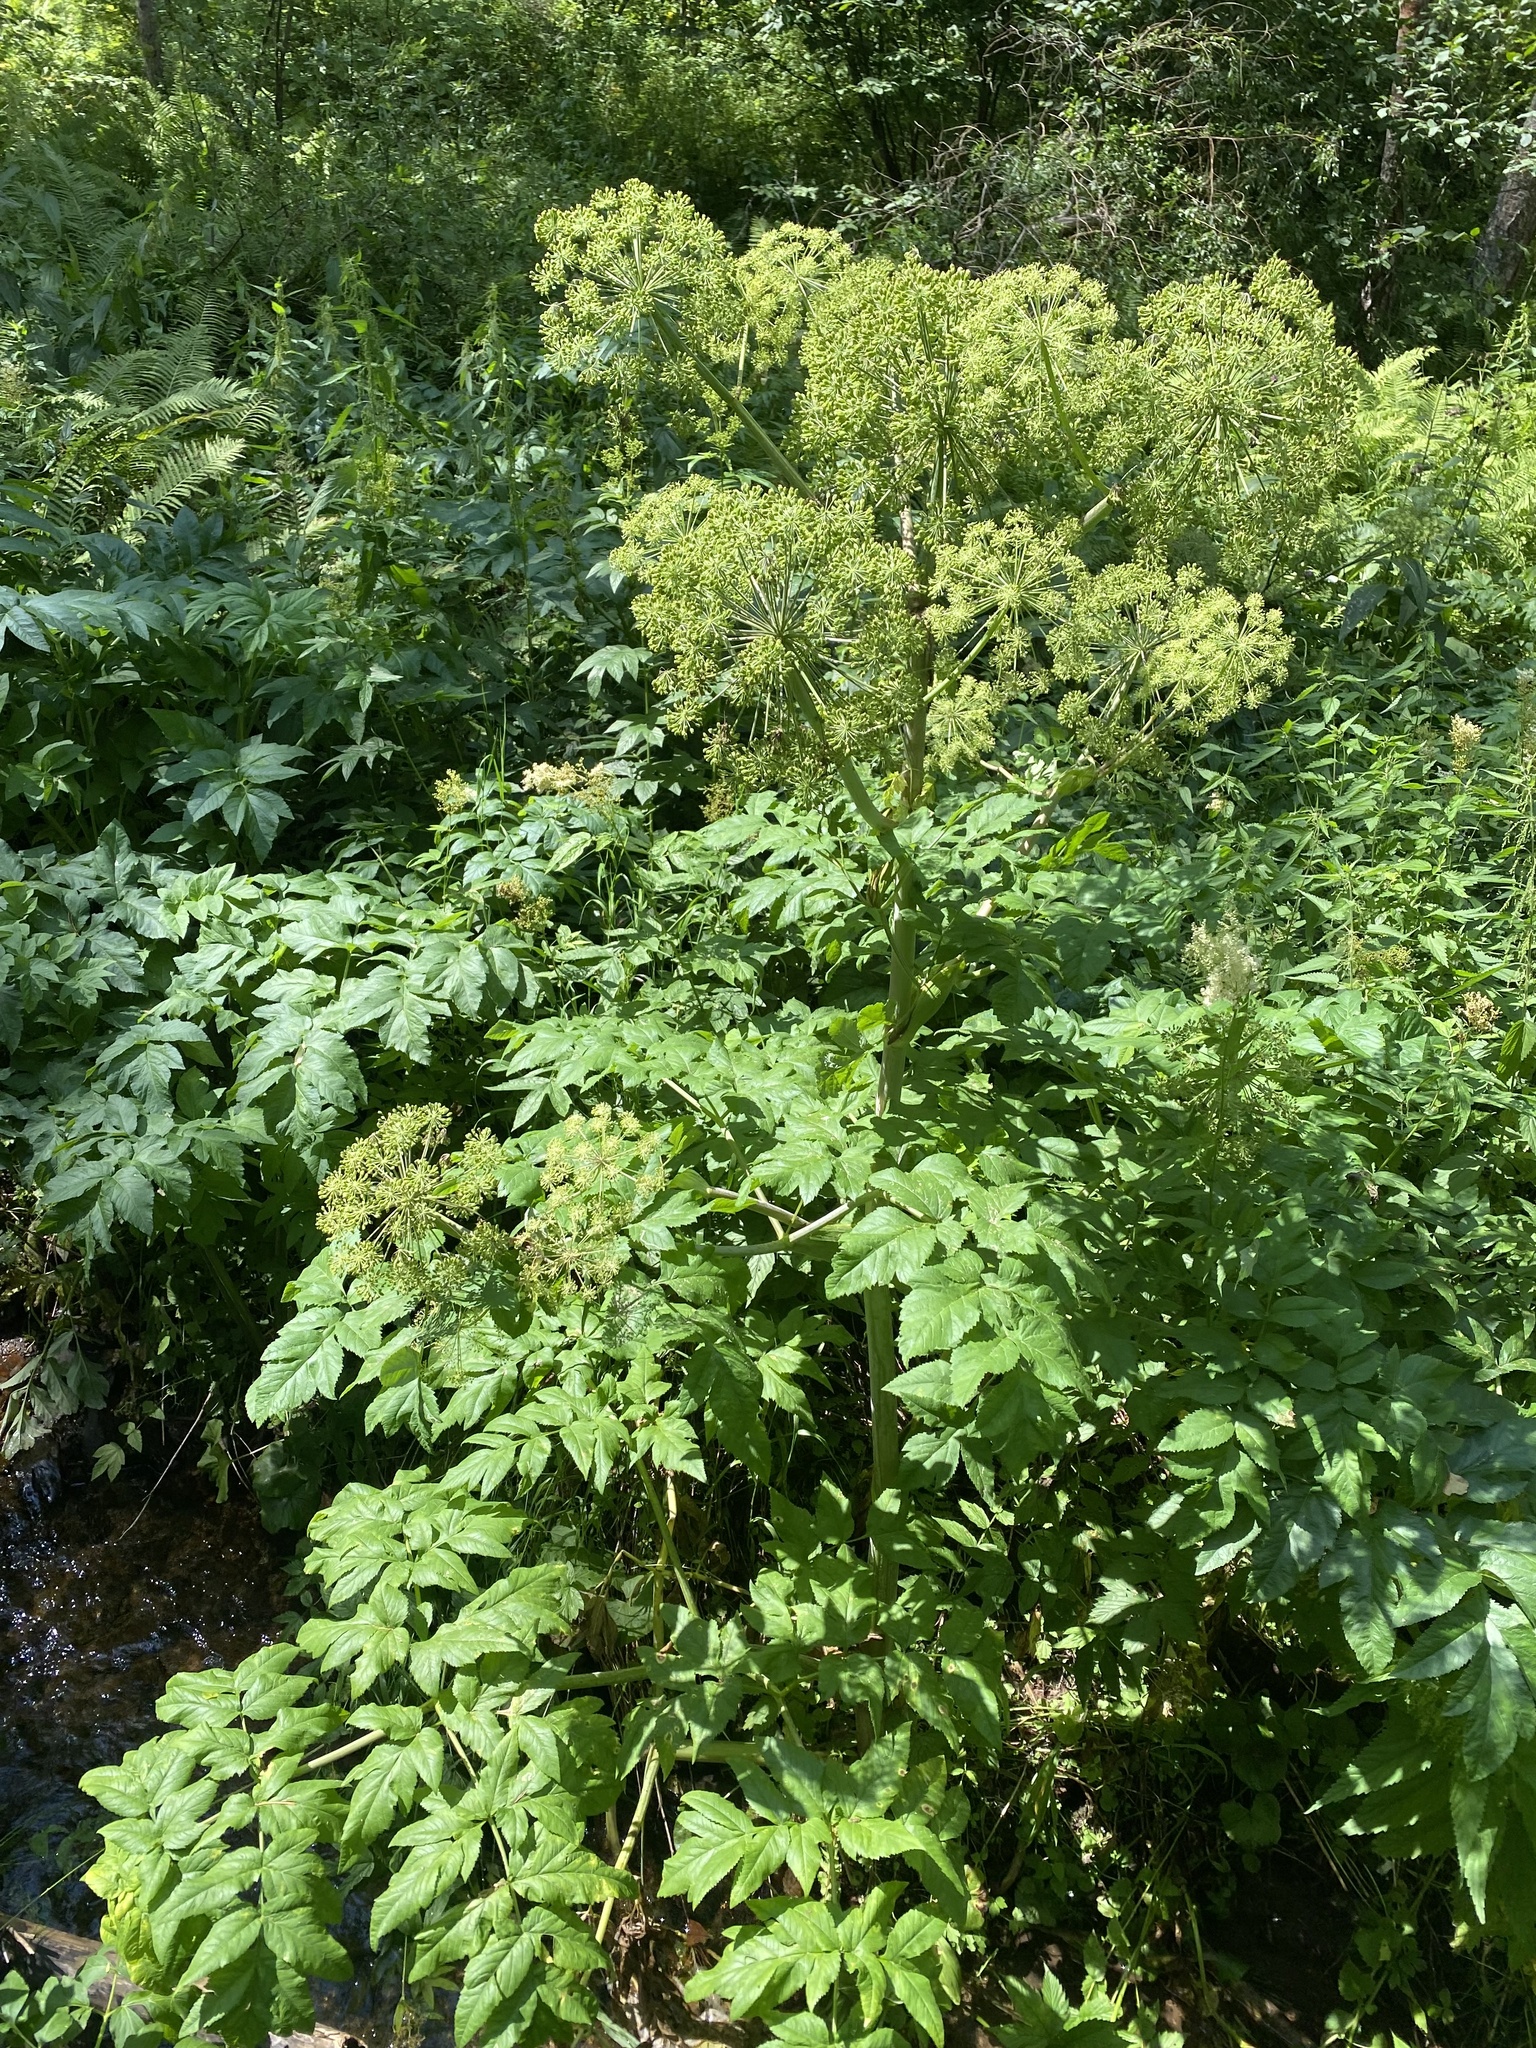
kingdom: Plantae
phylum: Tracheophyta
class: Magnoliopsida
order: Apiales
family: Apiaceae
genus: Angelica
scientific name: Angelica decurrens
